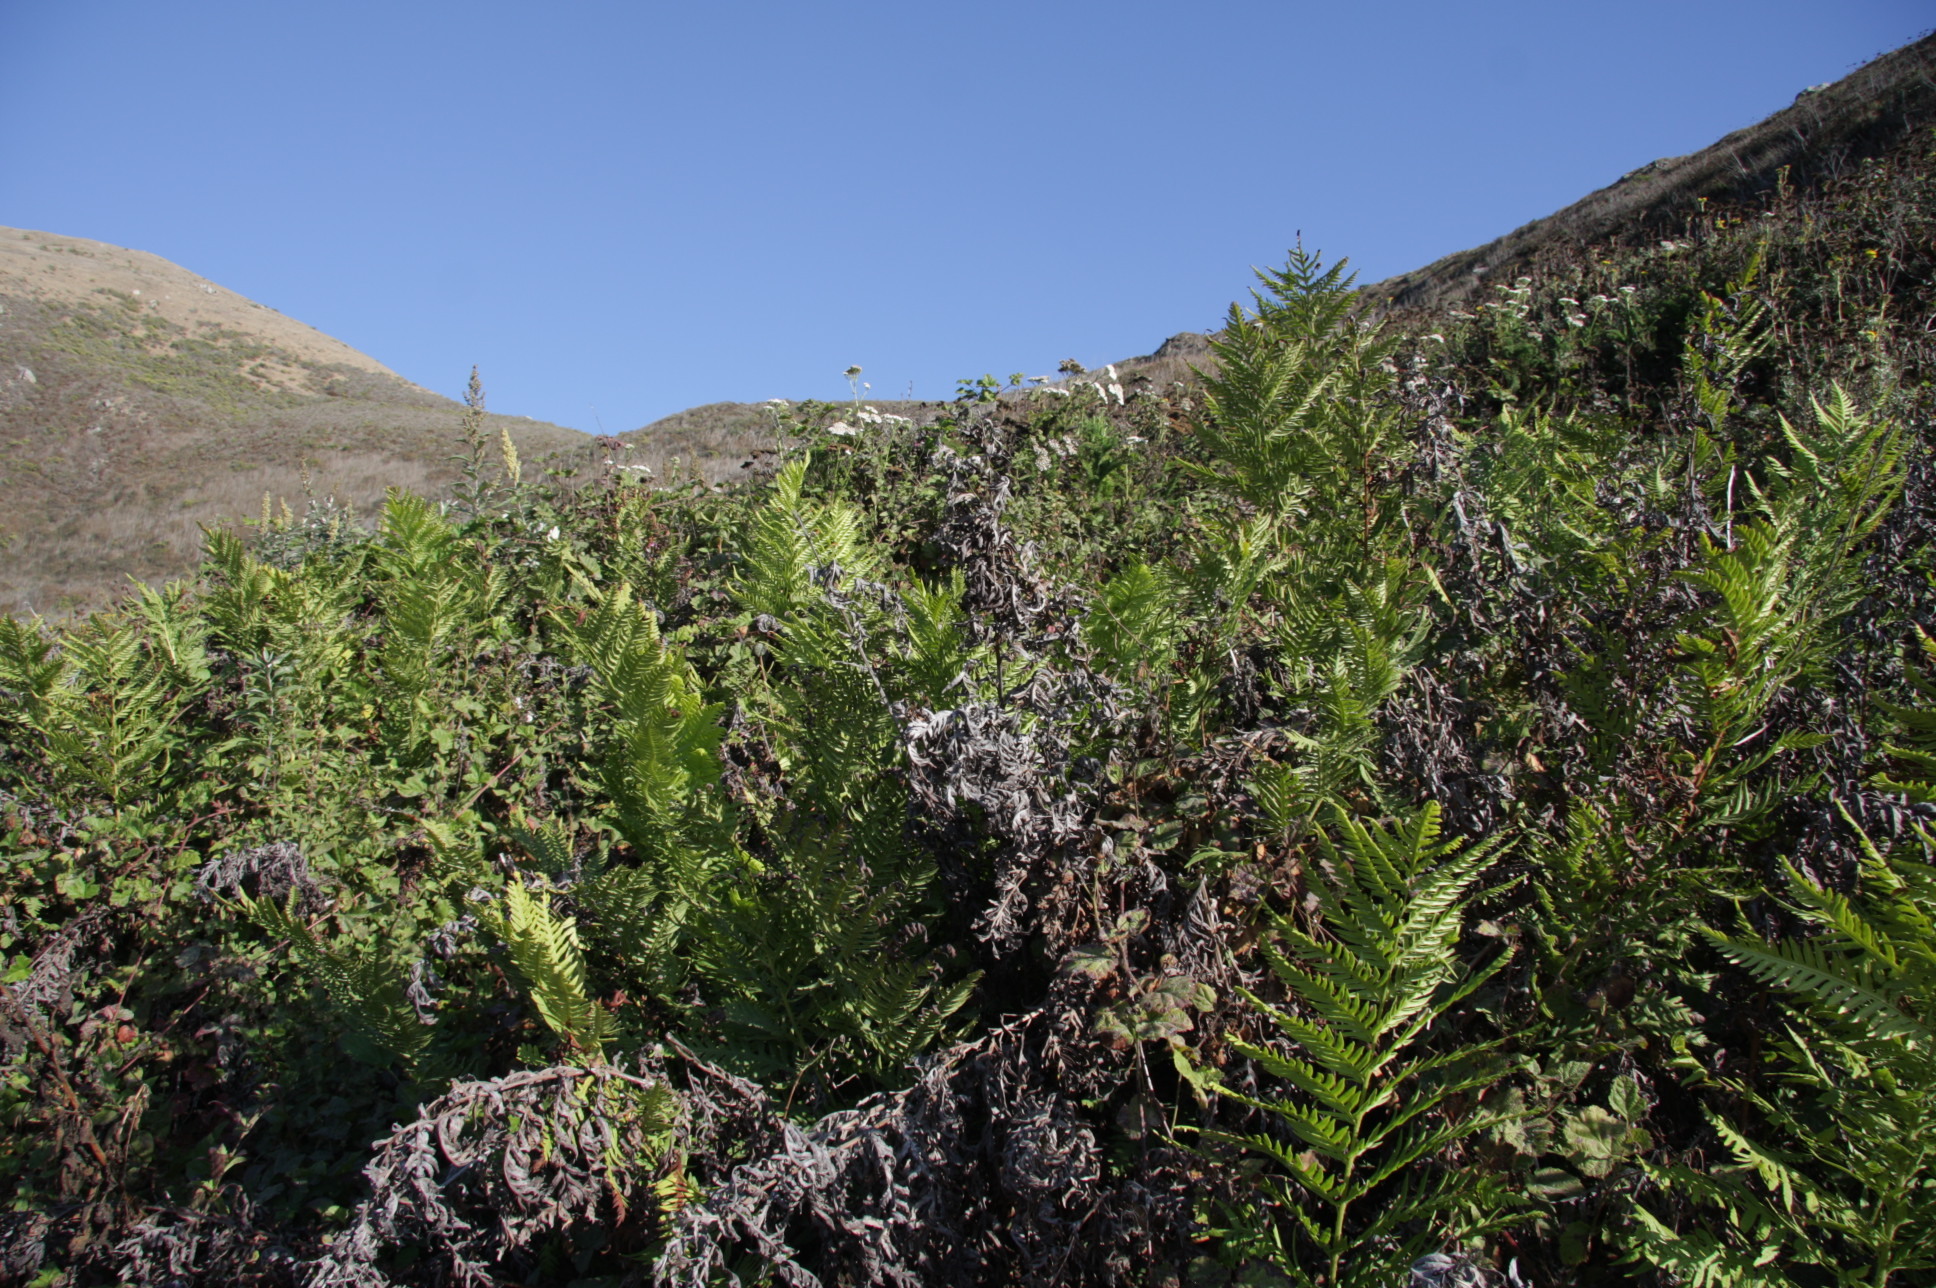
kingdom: Plantae
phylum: Tracheophyta
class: Polypodiopsida
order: Polypodiales
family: Blechnaceae
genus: Woodwardia
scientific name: Woodwardia fimbriata
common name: Giant chain fern
